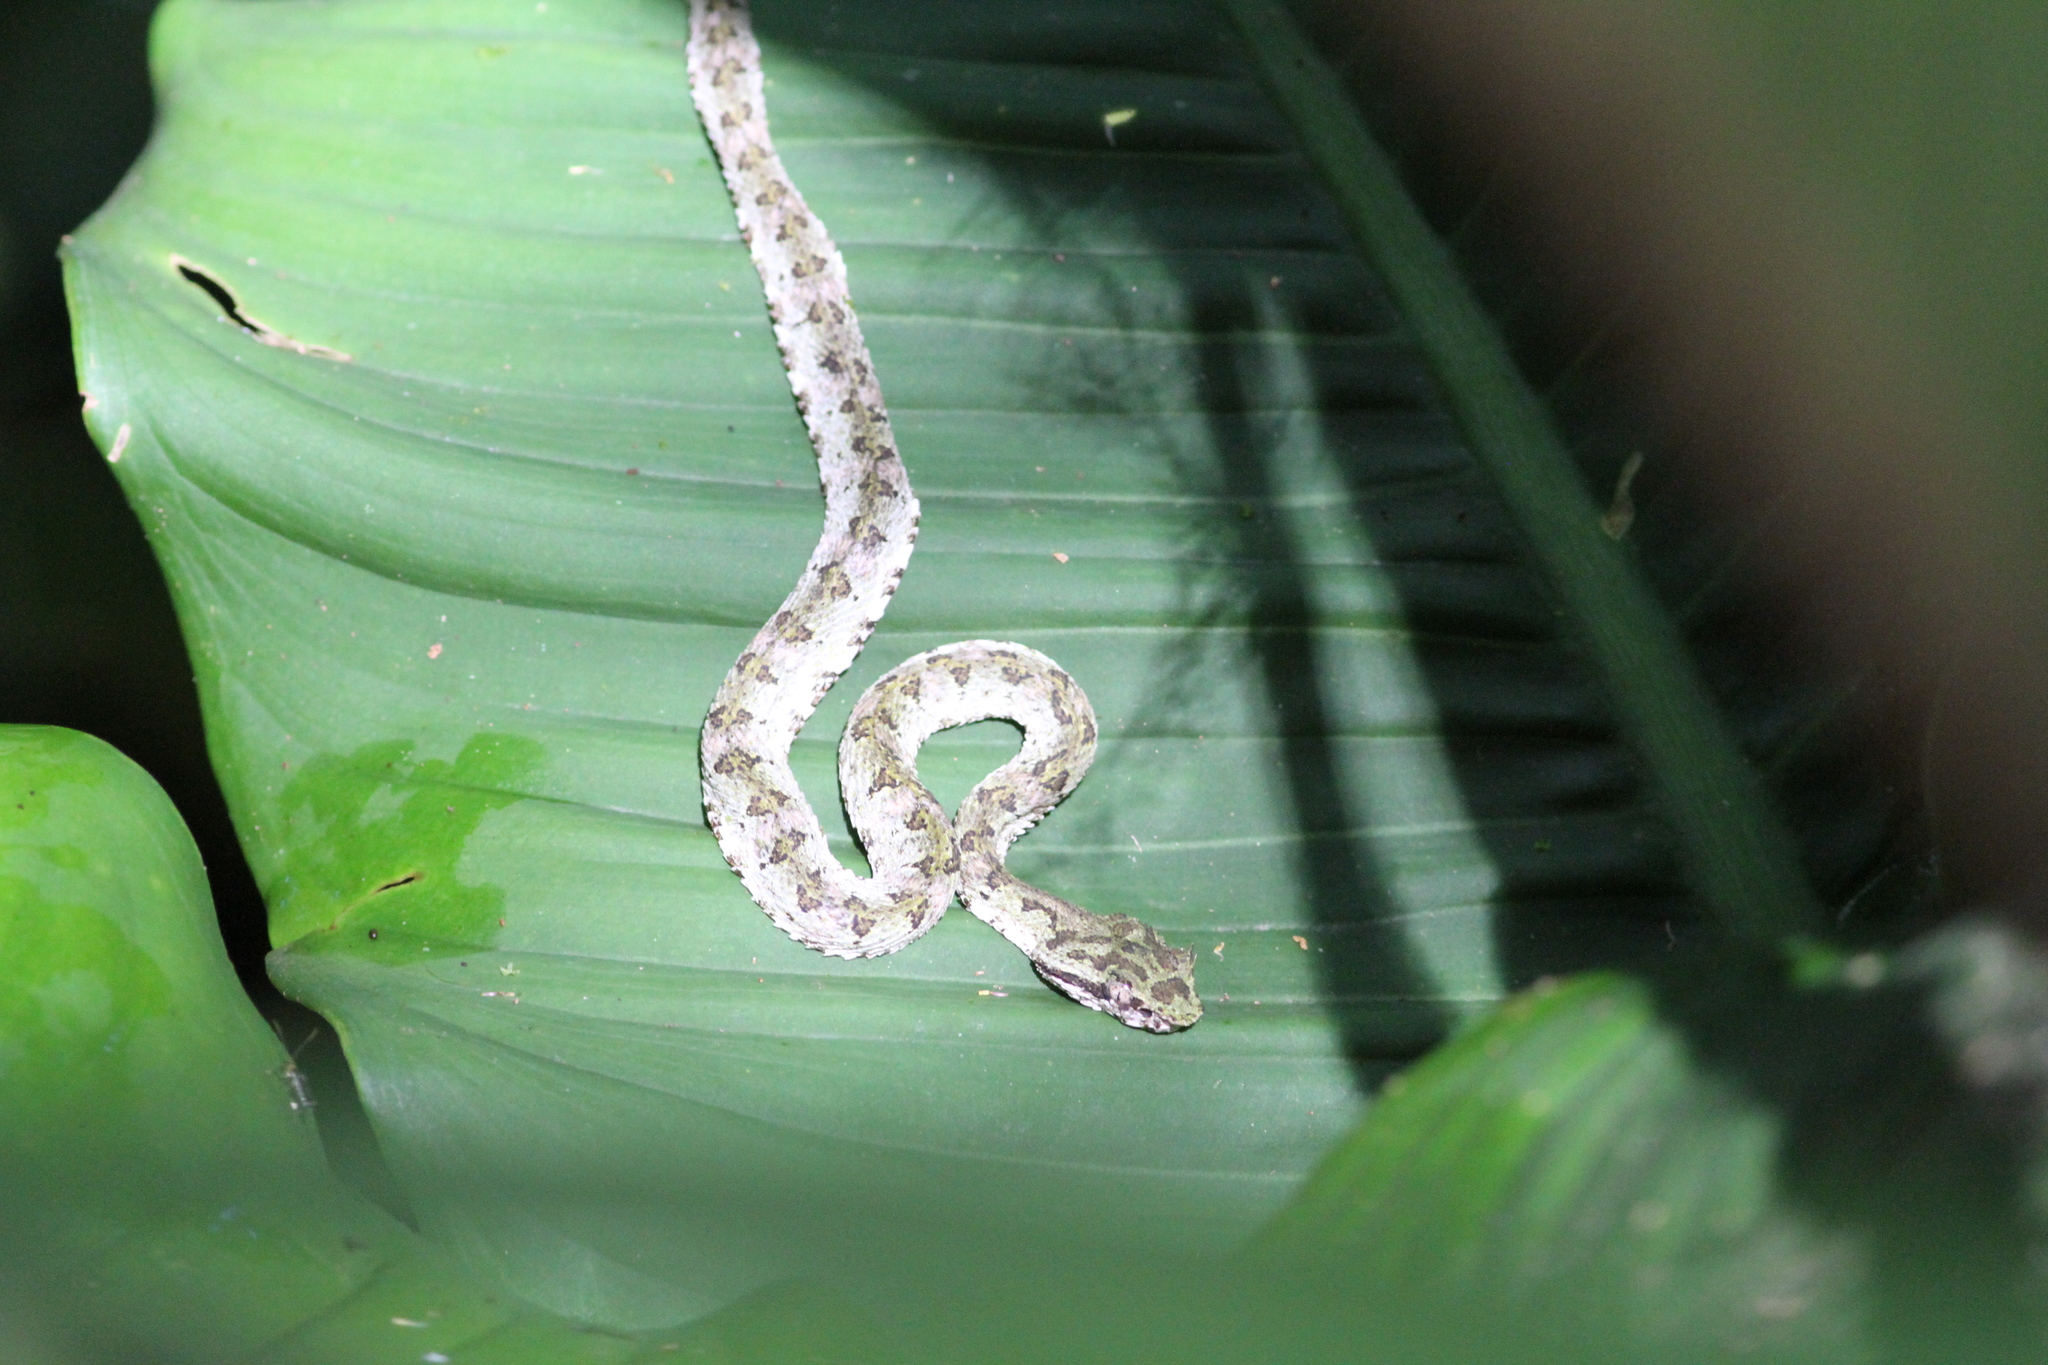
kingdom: Animalia
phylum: Chordata
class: Squamata
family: Viperidae
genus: Bothriechis
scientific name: Bothriechis schlegelii
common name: Eyelash viper
